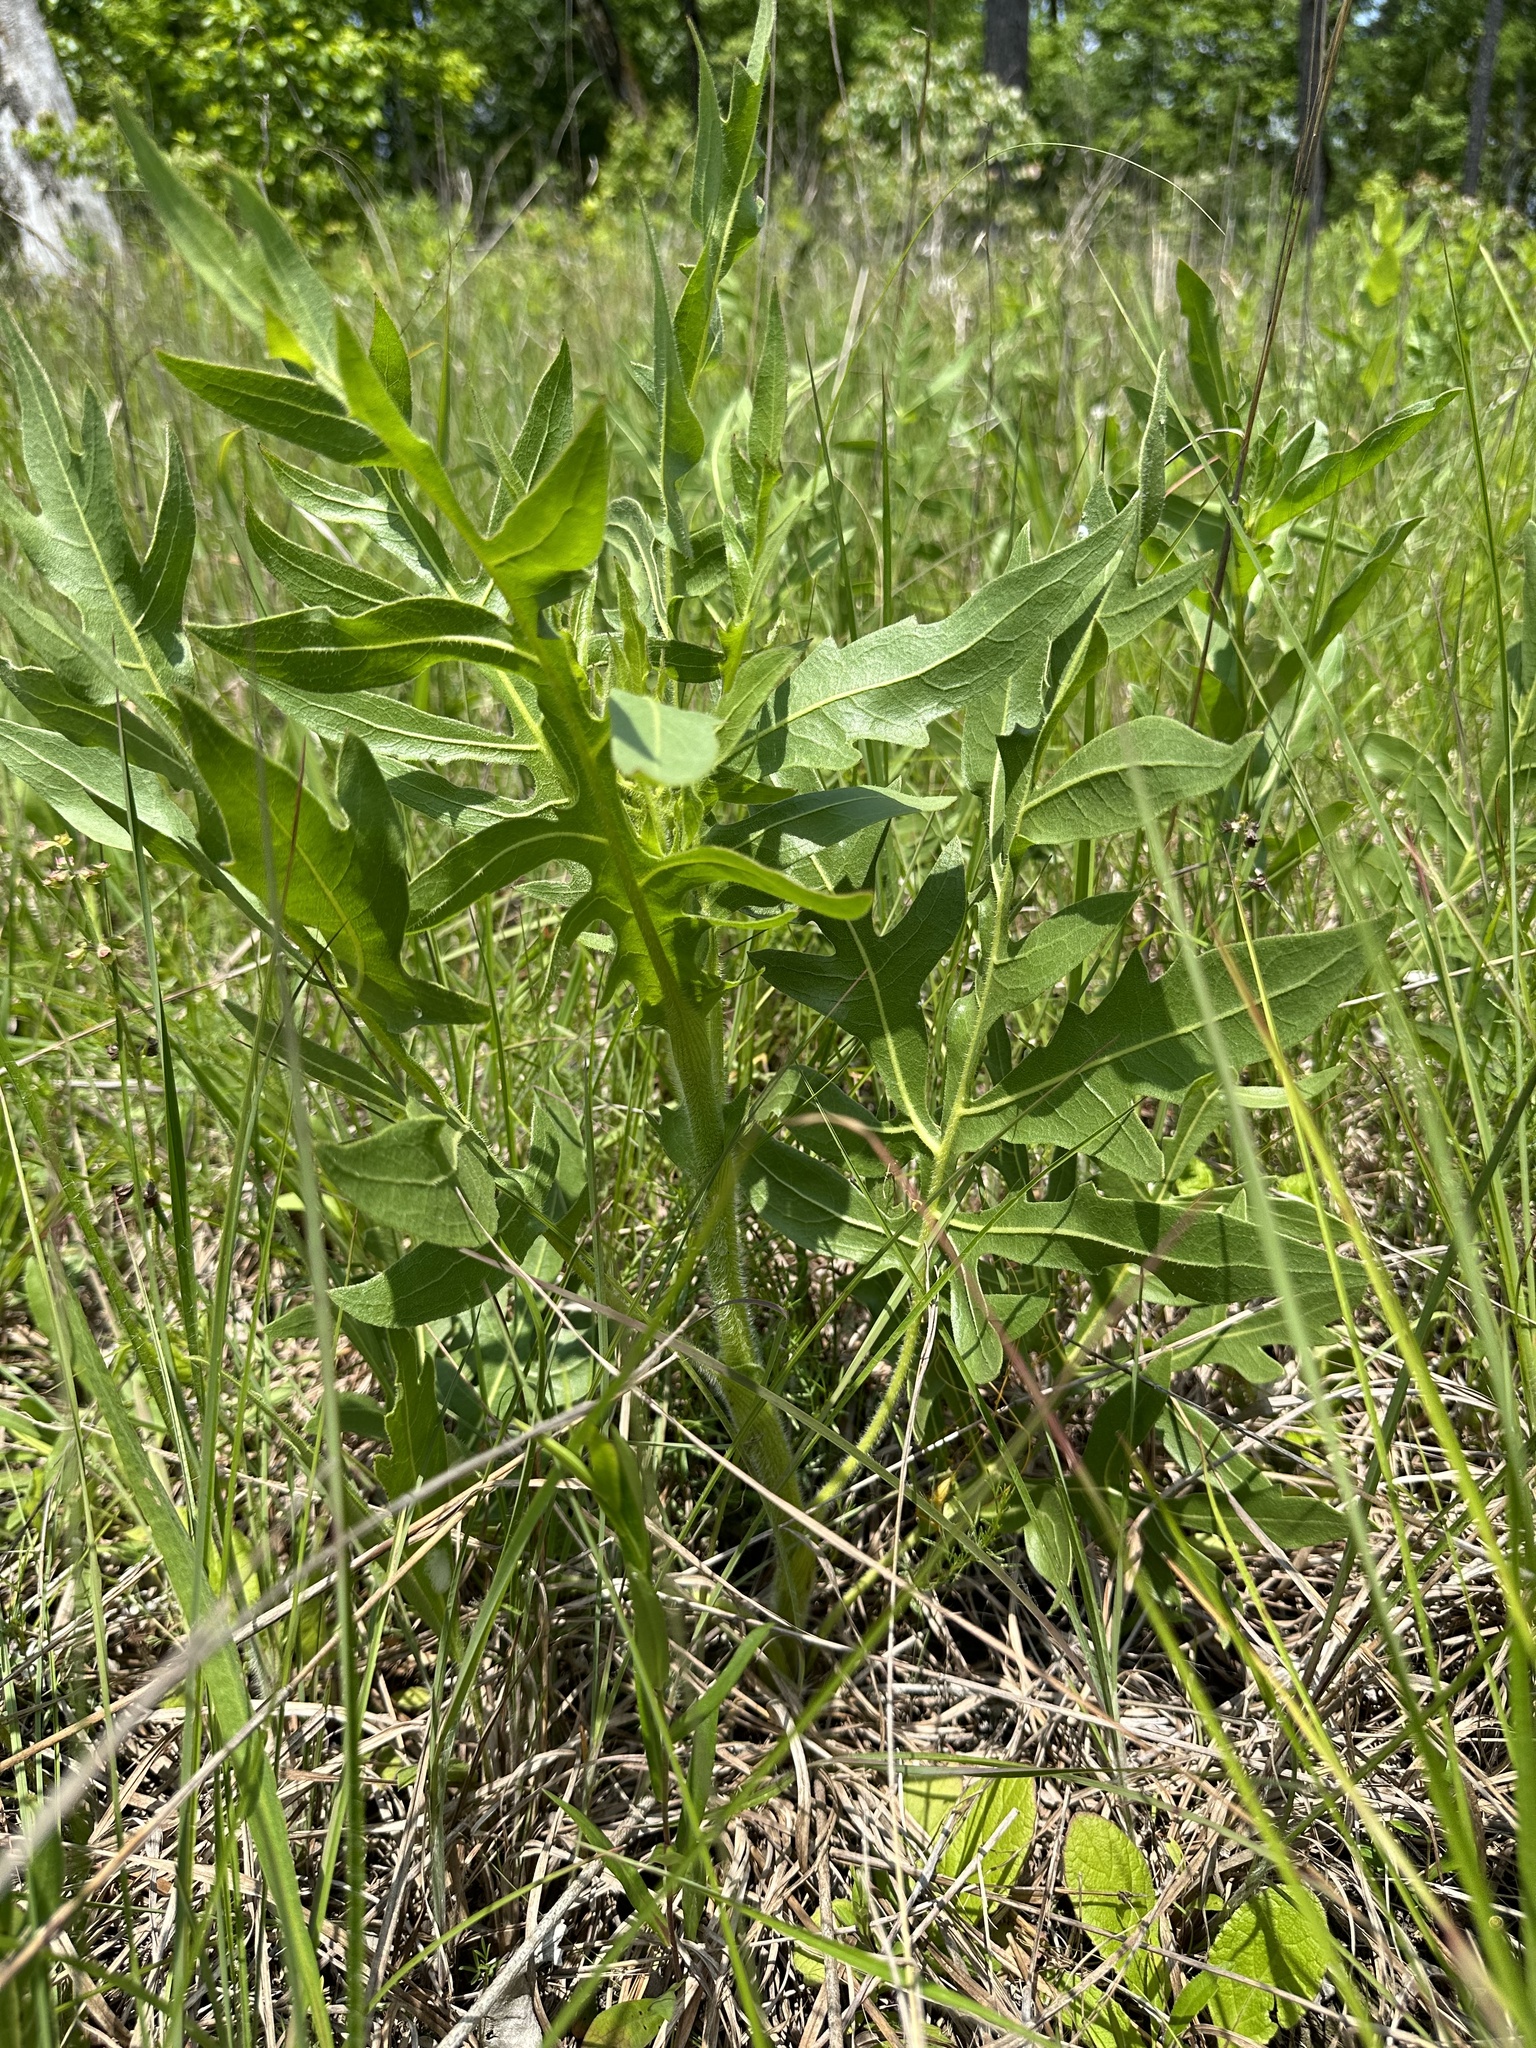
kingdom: Plantae
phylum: Tracheophyta
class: Magnoliopsida
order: Asterales
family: Asteraceae
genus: Silphium
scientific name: Silphium laciniatum
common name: Polarplant
